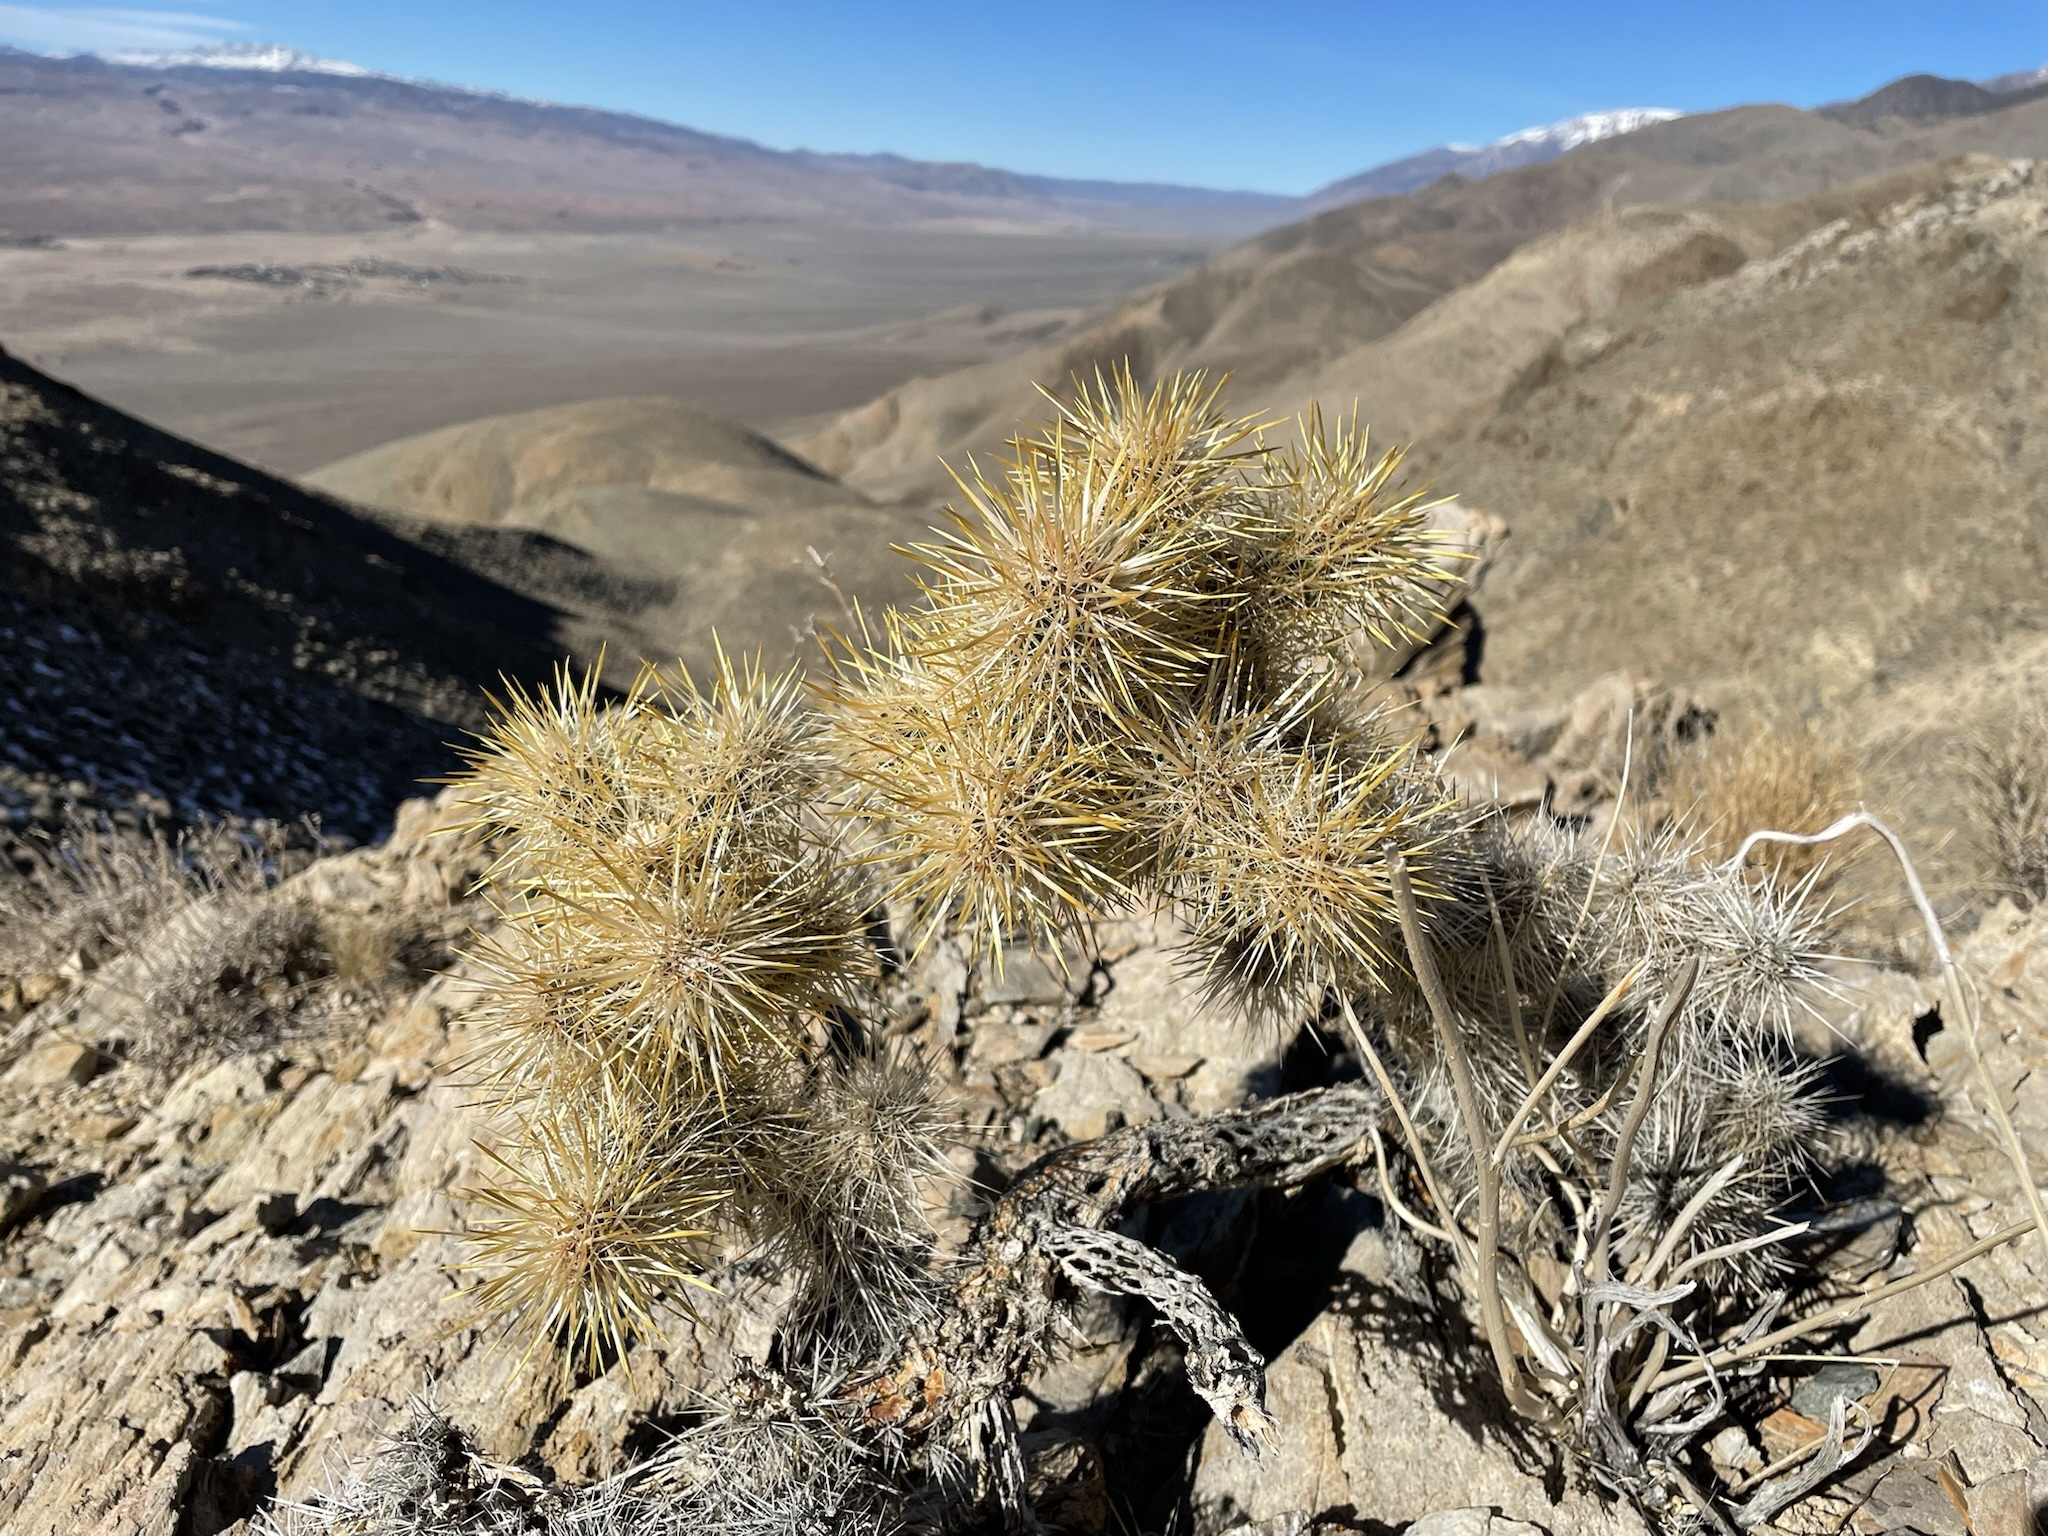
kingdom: Plantae
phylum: Tracheophyta
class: Magnoliopsida
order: Caryophyllales
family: Cactaceae
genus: Cylindropuntia
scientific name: Cylindropuntia echinocarpa
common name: Ground cholla
